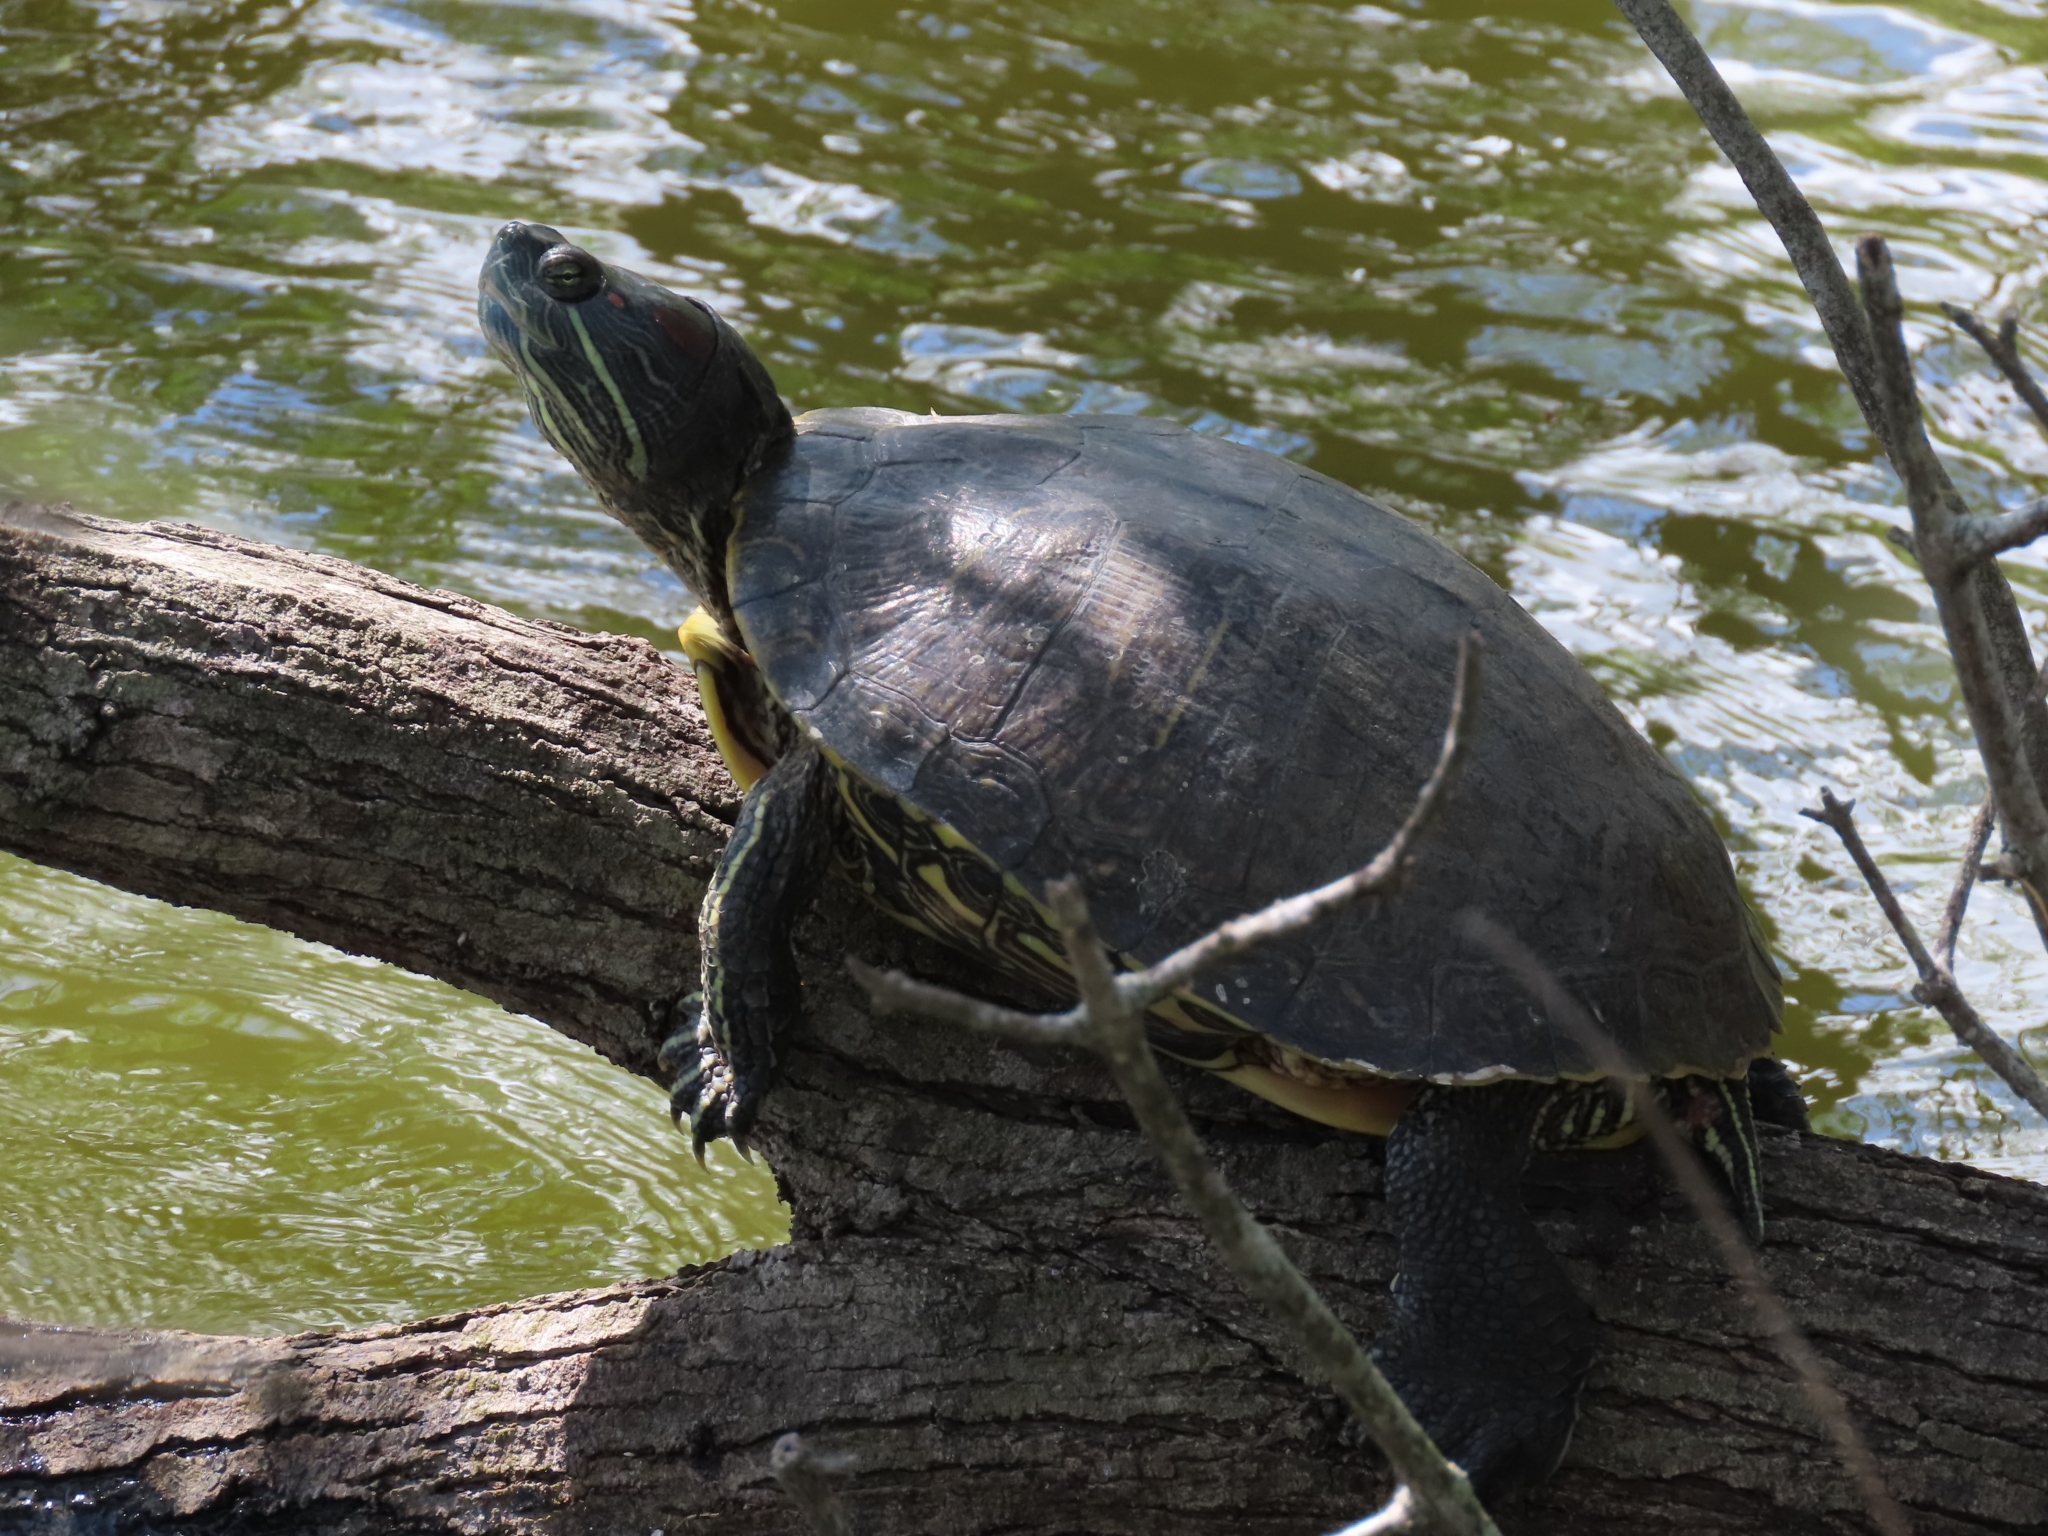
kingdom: Animalia
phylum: Chordata
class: Testudines
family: Emydidae
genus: Trachemys
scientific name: Trachemys scripta
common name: Slider
